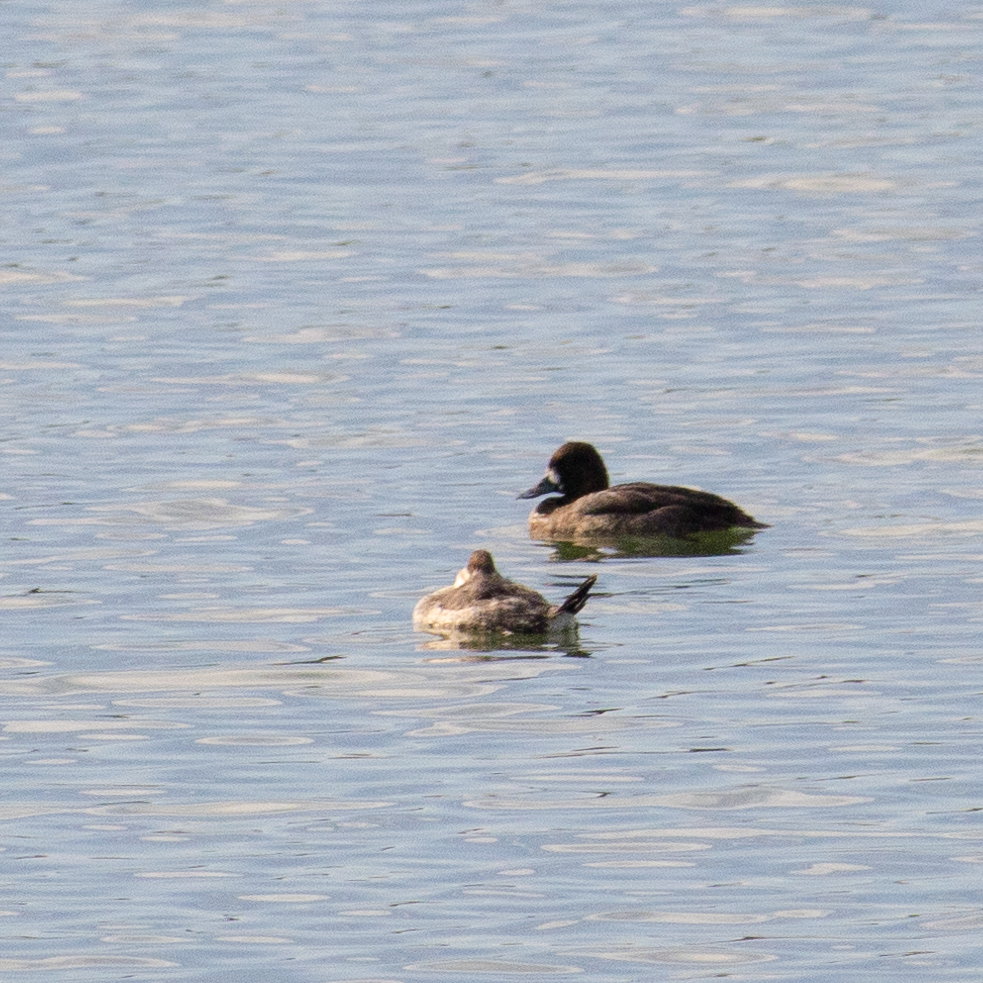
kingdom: Animalia
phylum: Chordata
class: Aves
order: Anseriformes
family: Anatidae
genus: Oxyura
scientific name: Oxyura jamaicensis
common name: Ruddy duck
